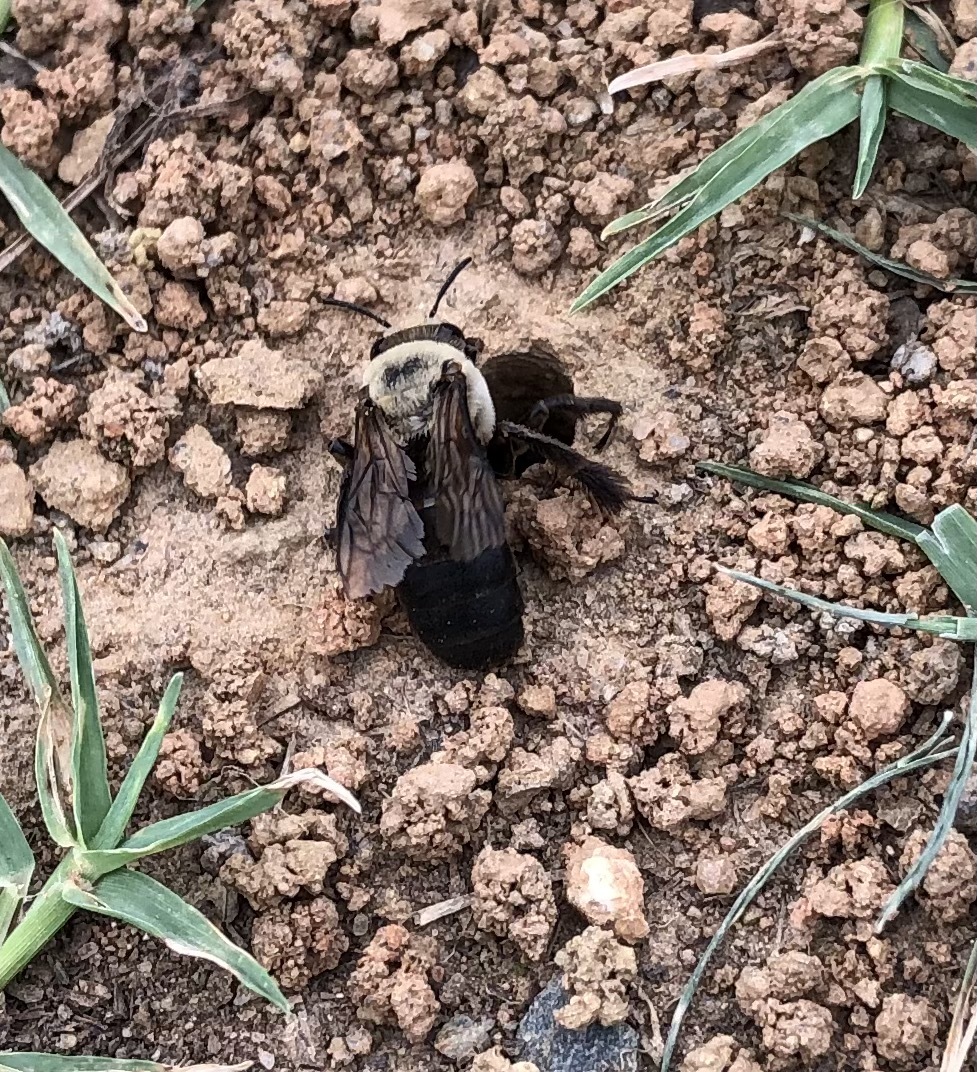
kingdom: Animalia
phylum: Arthropoda
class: Insecta
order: Hymenoptera
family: Apidae
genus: Ptilothrix
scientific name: Ptilothrix bombiformis
